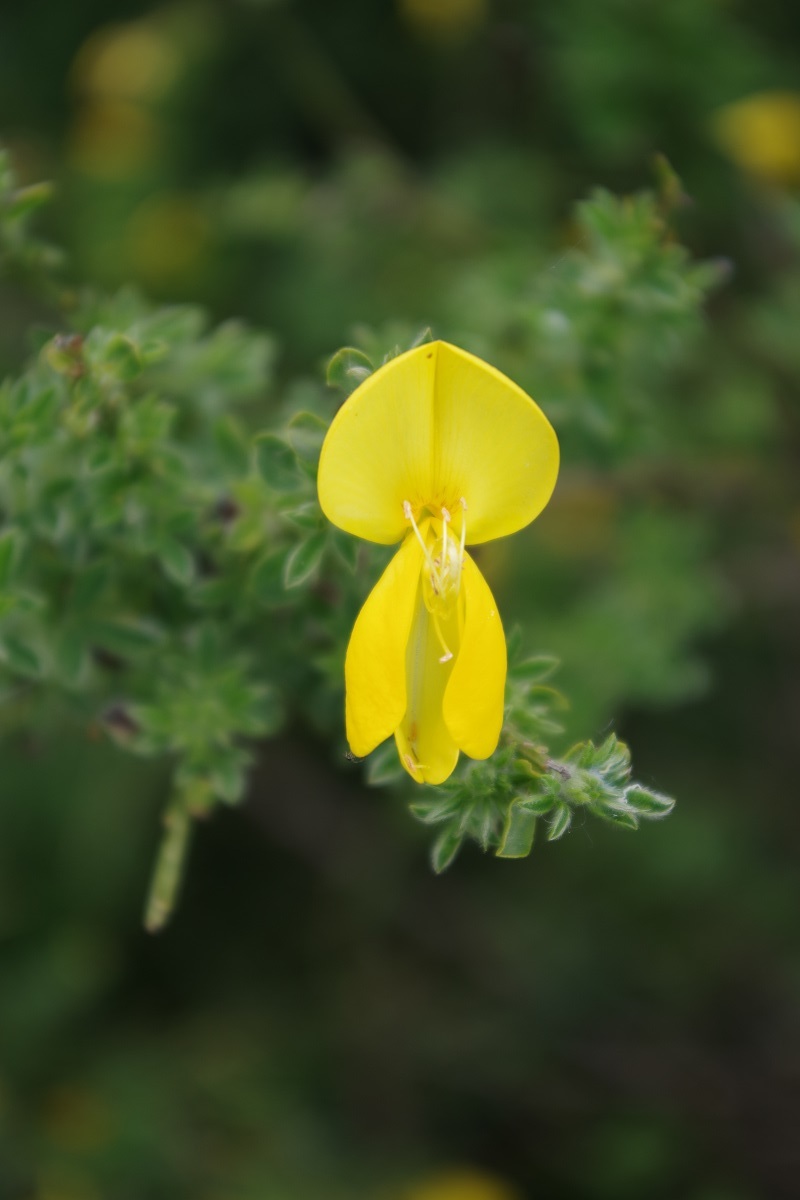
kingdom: Plantae
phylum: Tracheophyta
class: Magnoliopsida
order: Fabales
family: Fabaceae
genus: Cytisus
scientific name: Cytisus scoparius
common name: Scotch broom
